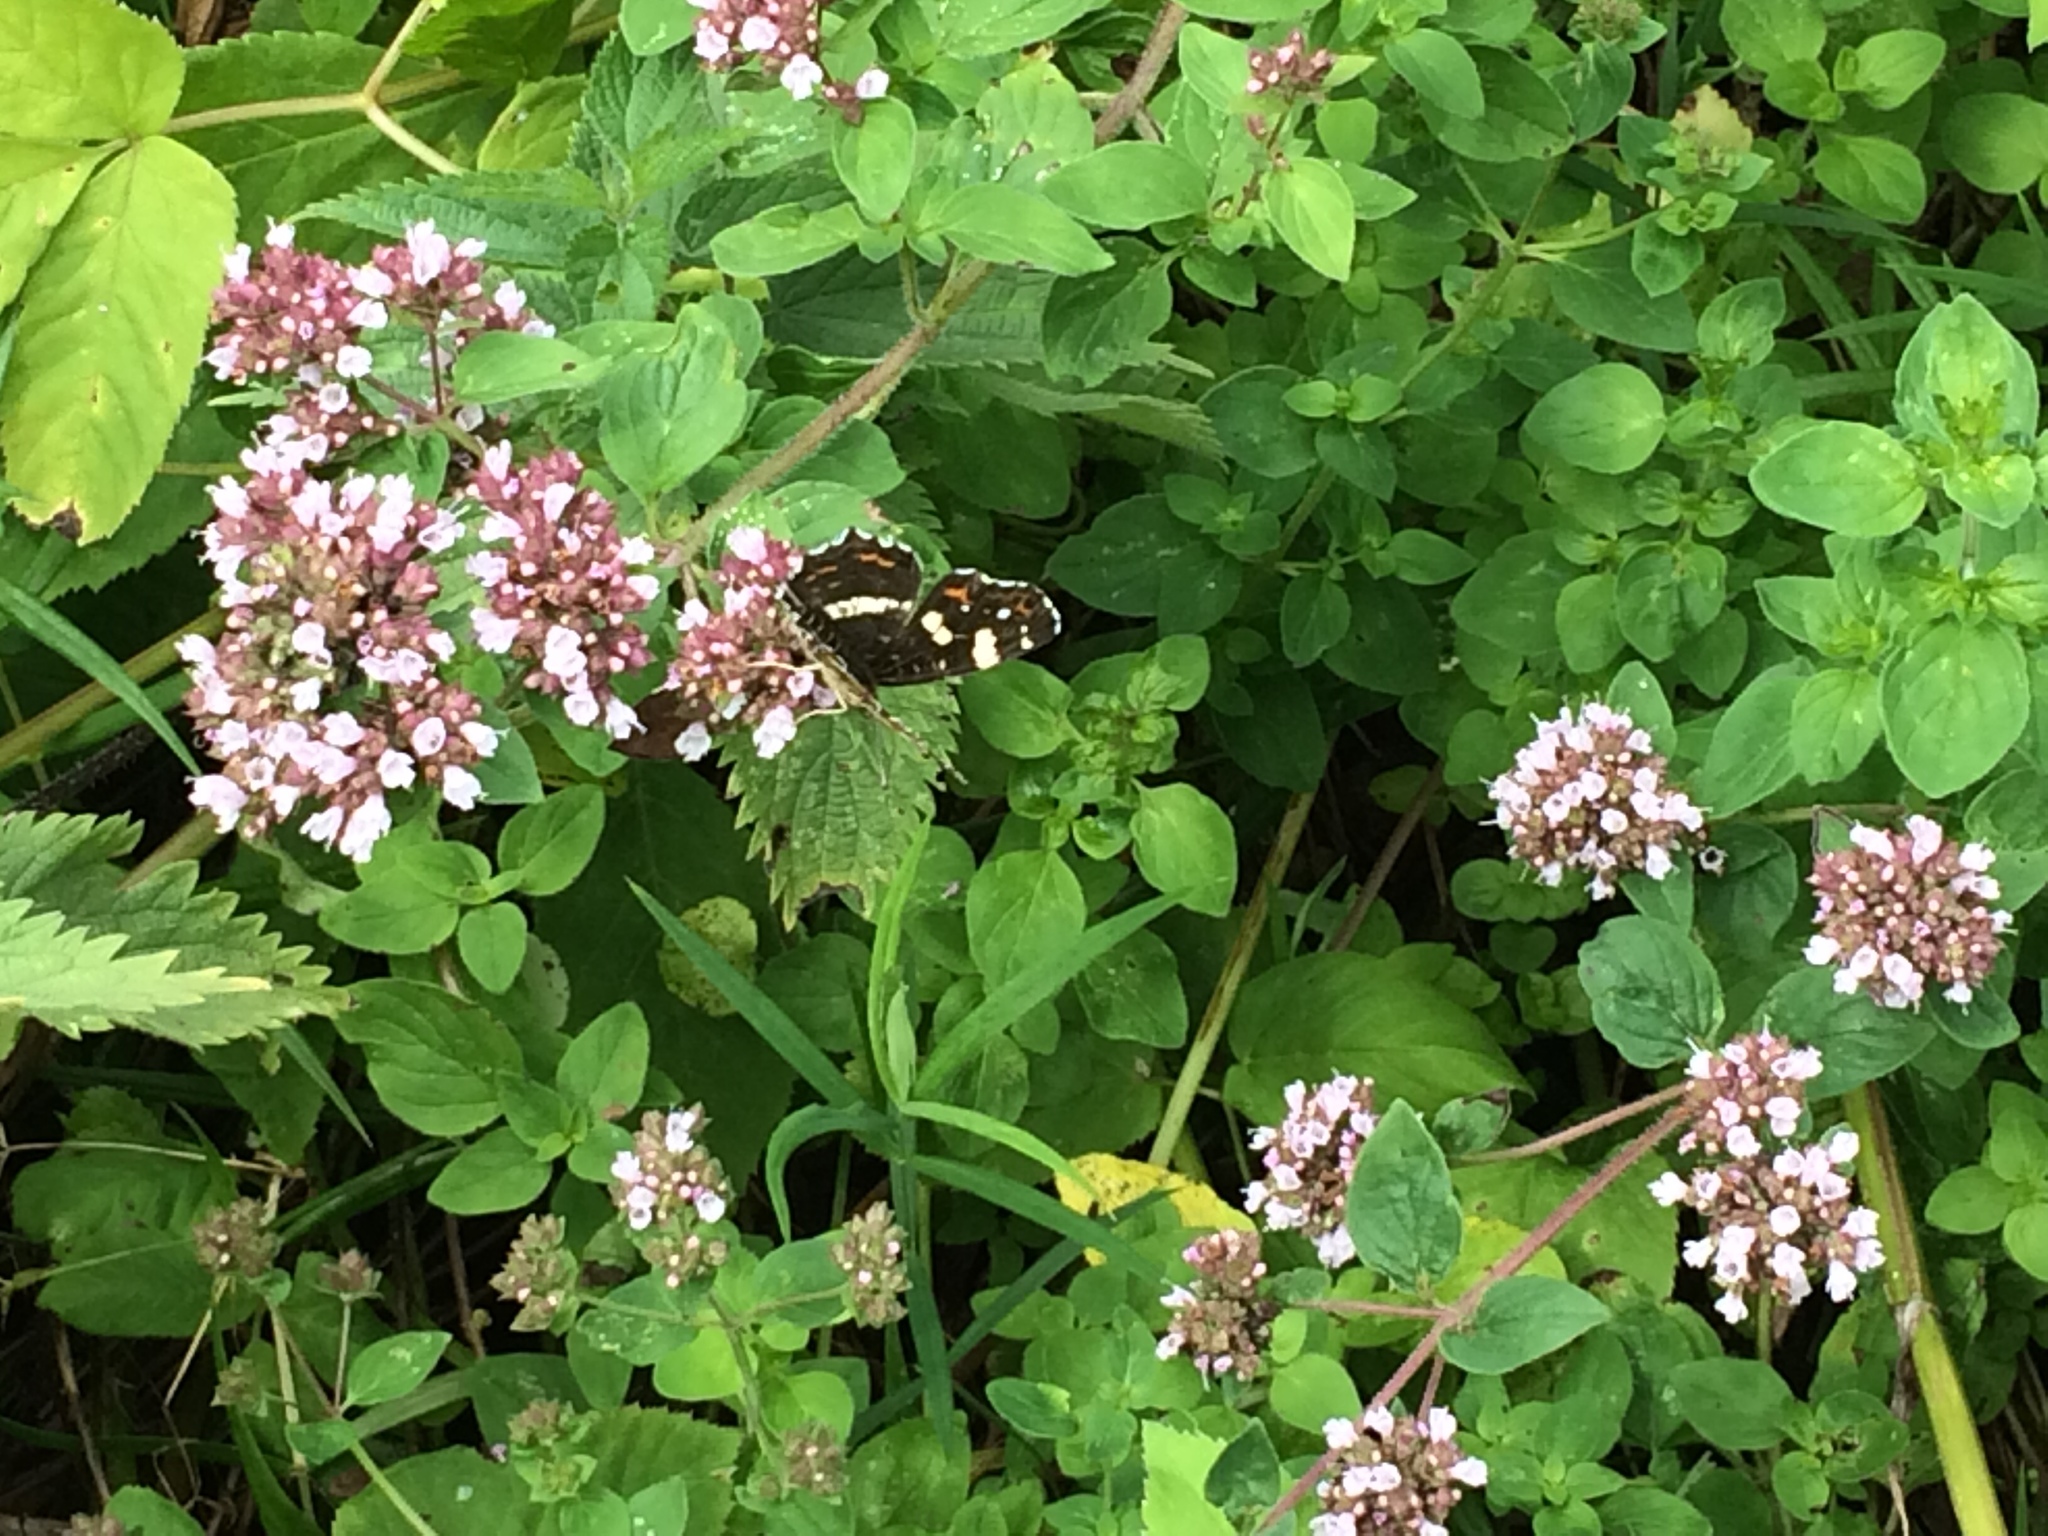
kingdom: Animalia
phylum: Arthropoda
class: Insecta
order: Lepidoptera
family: Nymphalidae
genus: Araschnia
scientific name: Araschnia levana
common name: Map butterfly
